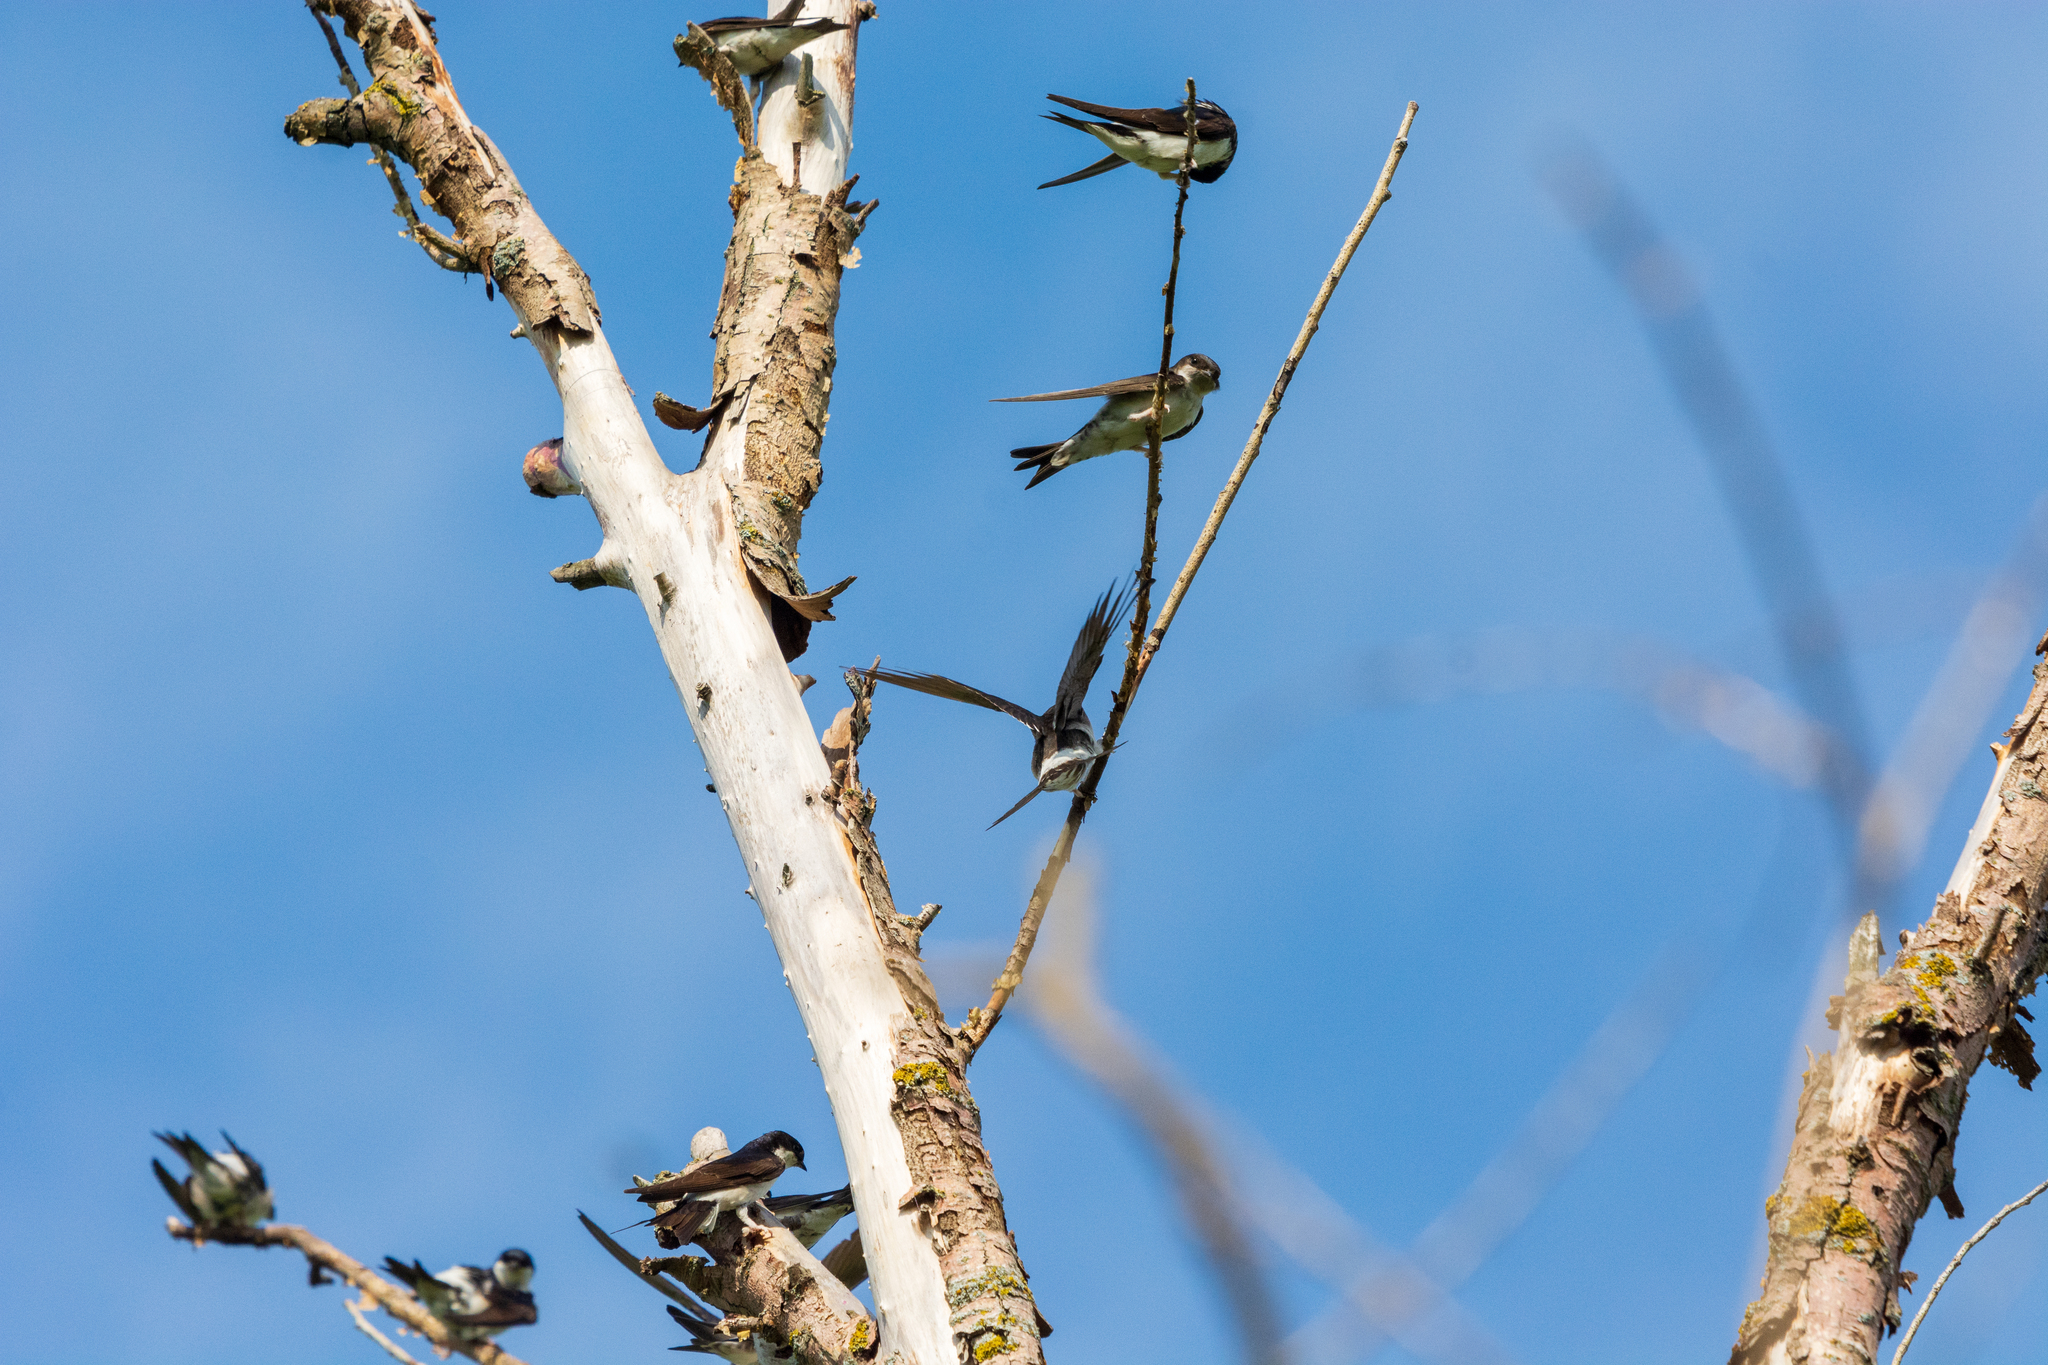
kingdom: Animalia
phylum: Chordata
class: Aves
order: Passeriformes
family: Hirundinidae
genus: Delichon
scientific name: Delichon urbicum
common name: Common house martin
